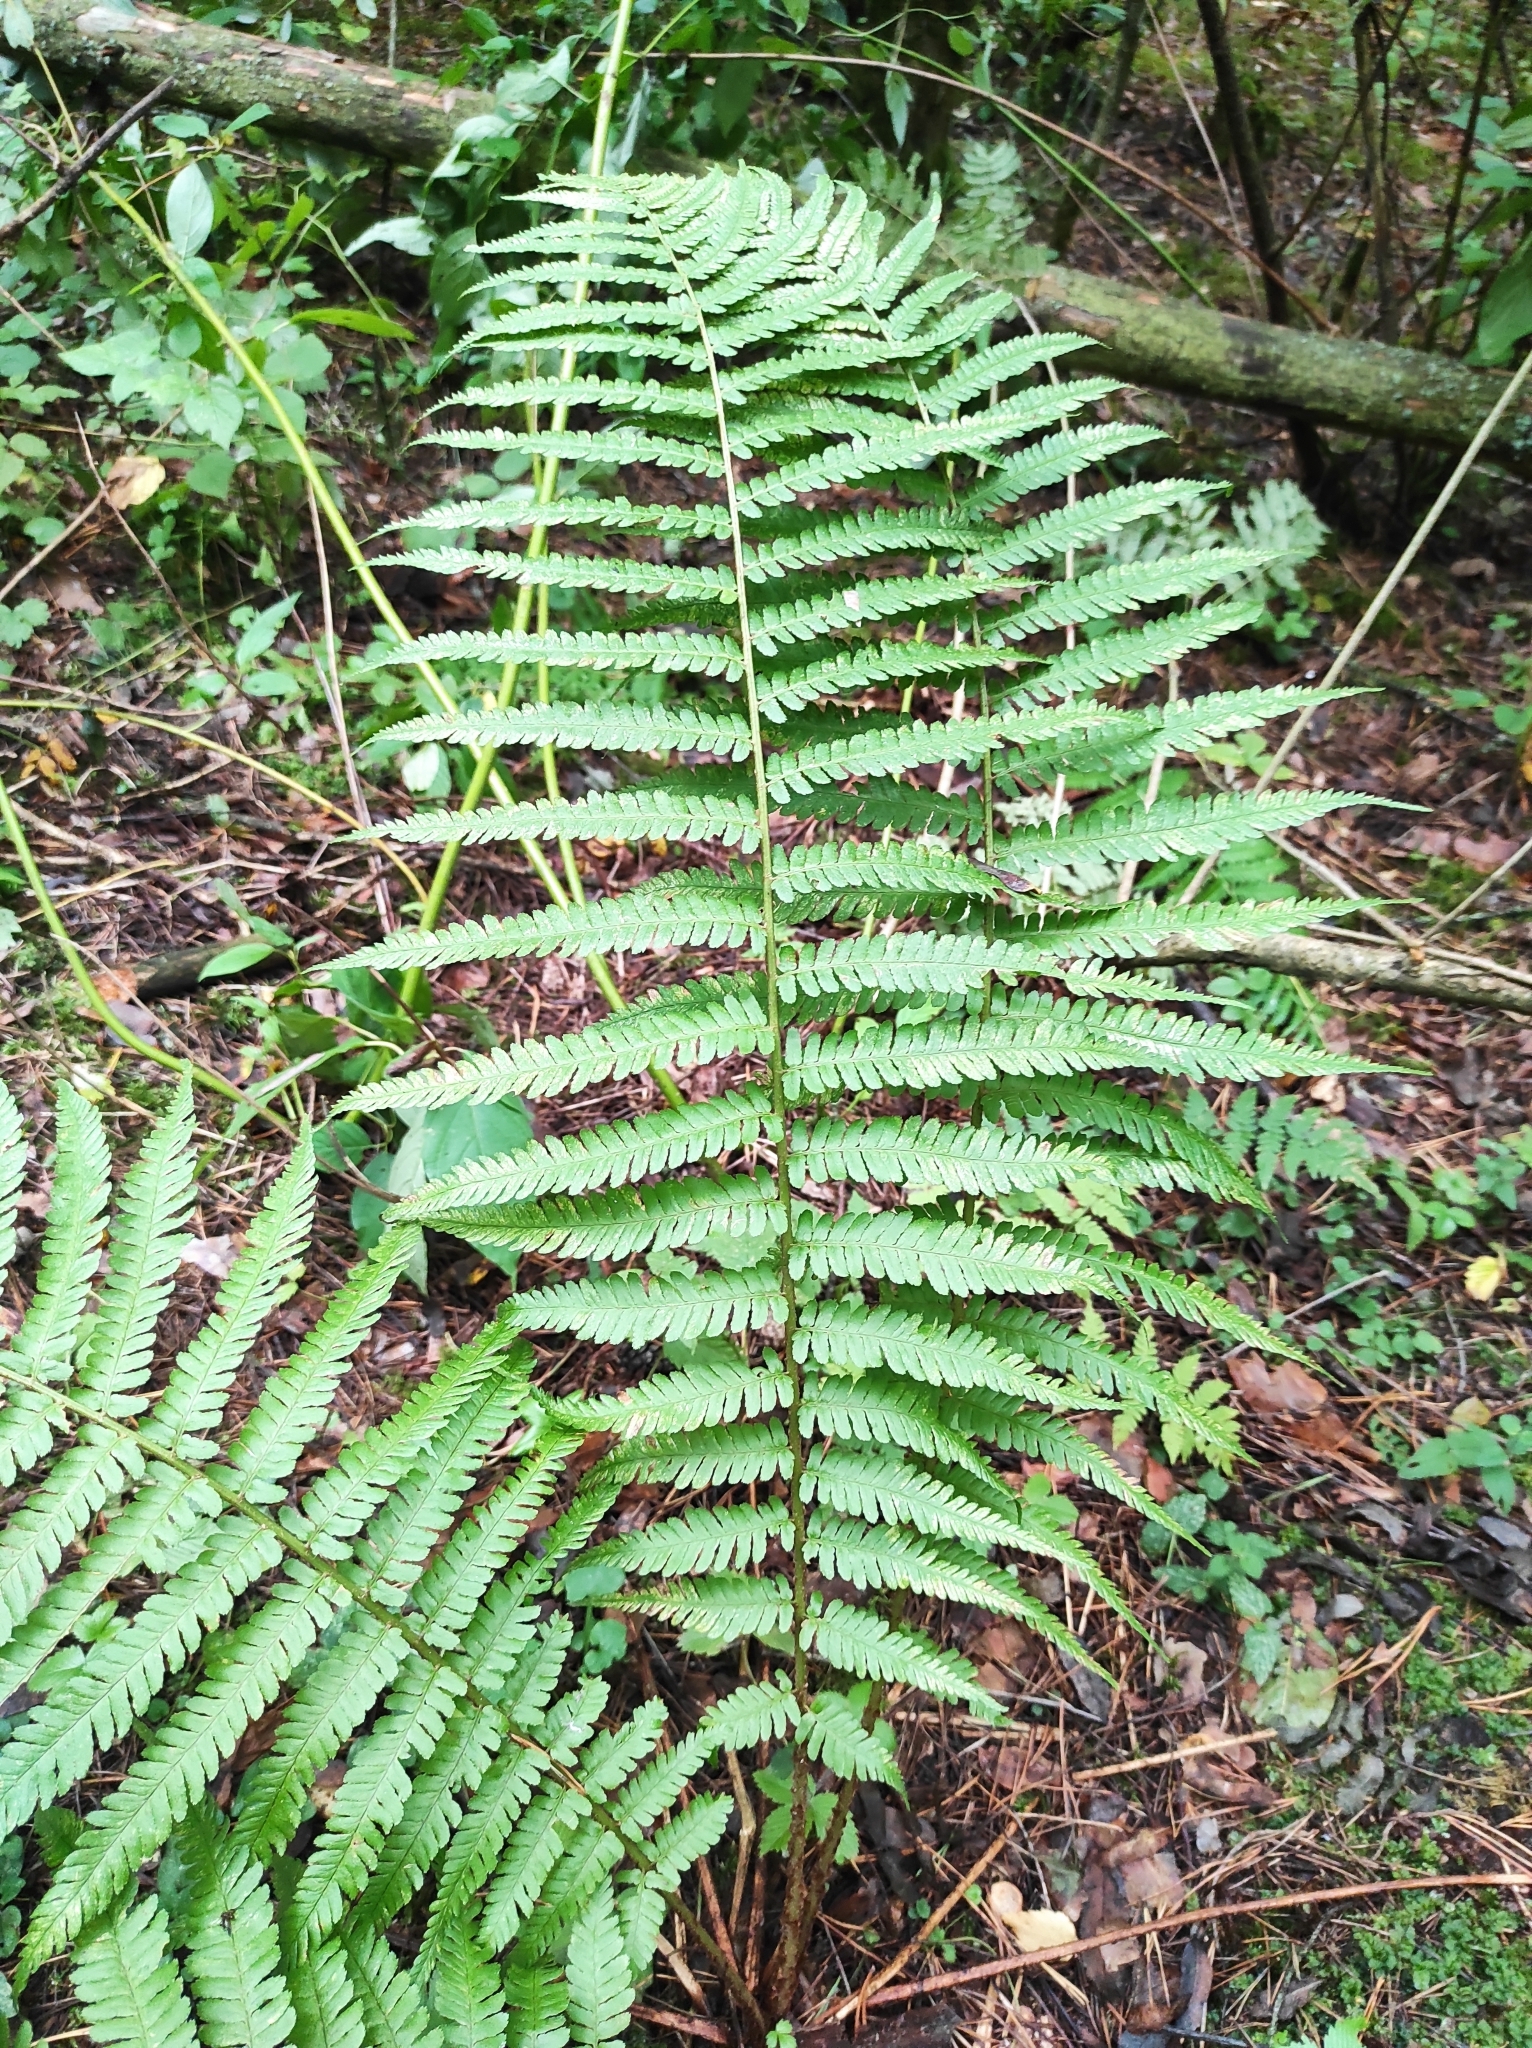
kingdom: Plantae
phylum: Tracheophyta
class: Polypodiopsida
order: Polypodiales
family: Dryopteridaceae
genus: Dryopteris
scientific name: Dryopteris filix-mas
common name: Male fern
